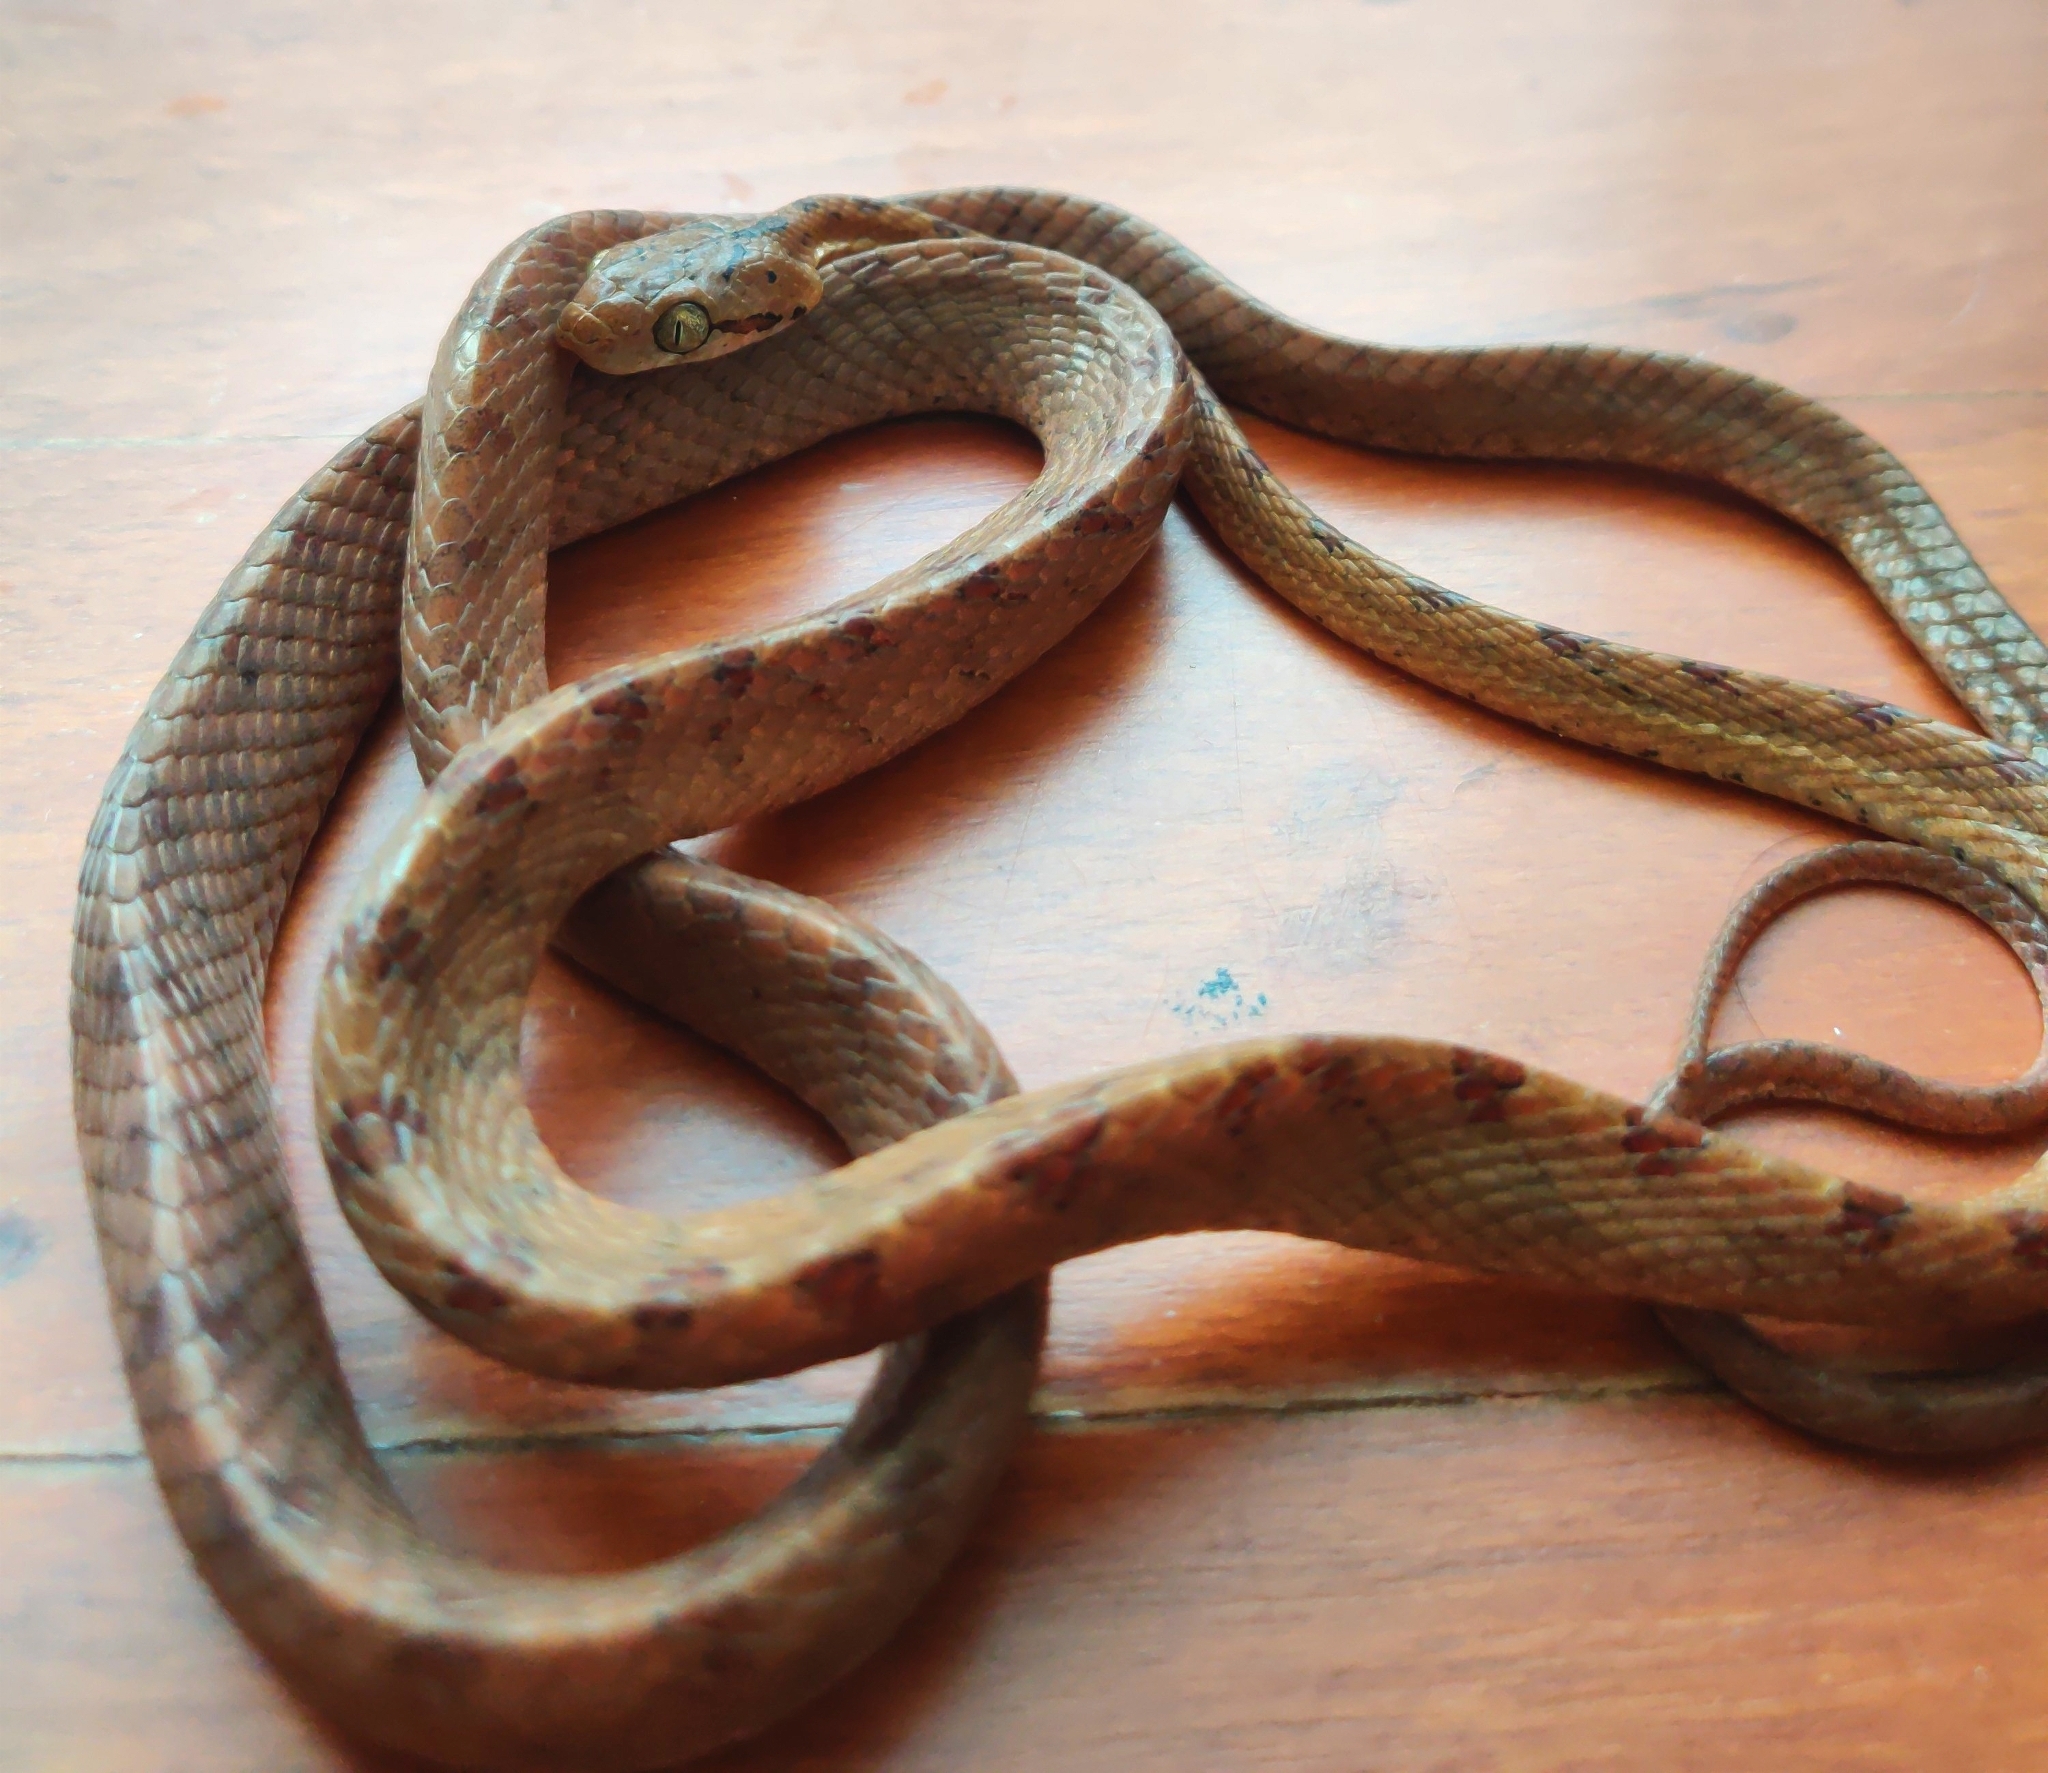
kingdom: Animalia
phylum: Chordata
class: Squamata
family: Colubridae
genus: Boiga
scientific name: Boiga nuchalis
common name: Collared catsnake
